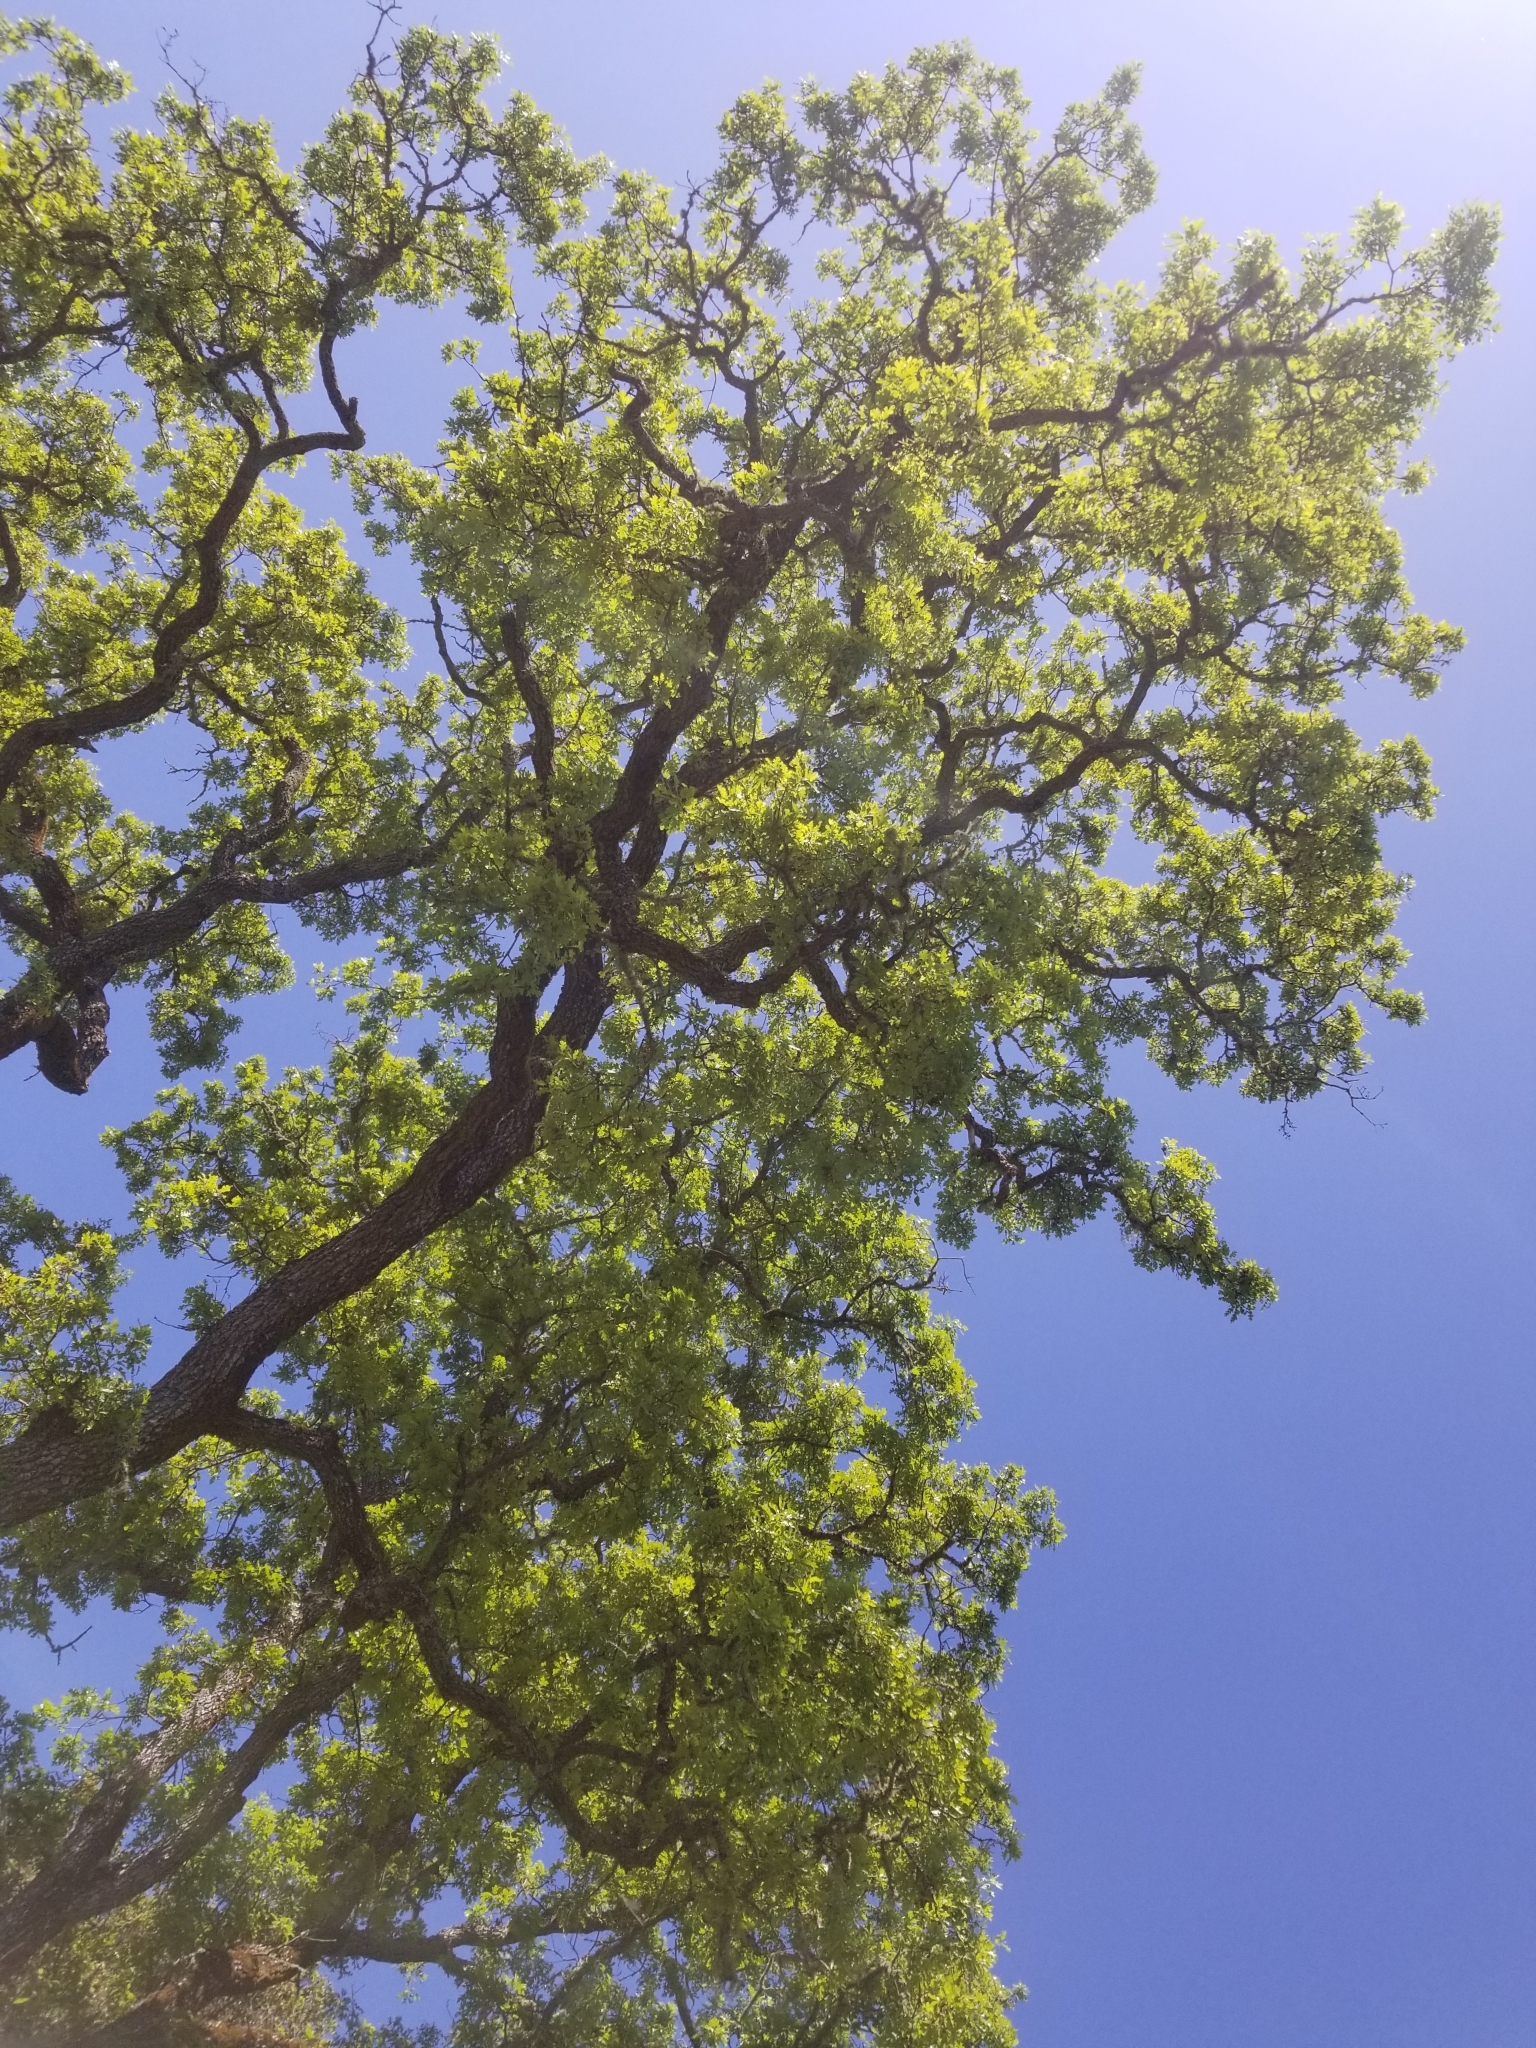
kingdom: Plantae
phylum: Tracheophyta
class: Magnoliopsida
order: Fagales
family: Fagaceae
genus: Quercus
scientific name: Quercus lobata
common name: Valley oak
